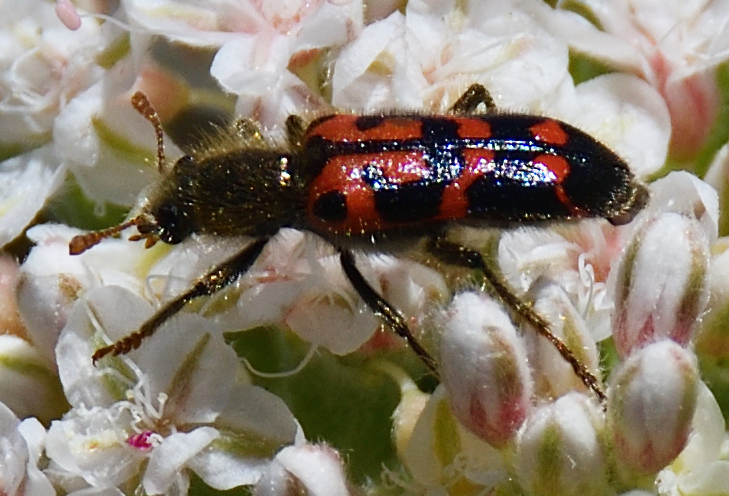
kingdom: Animalia
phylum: Arthropoda
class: Insecta
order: Coleoptera
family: Cleridae
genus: Trichodes
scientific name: Trichodes ornatus
